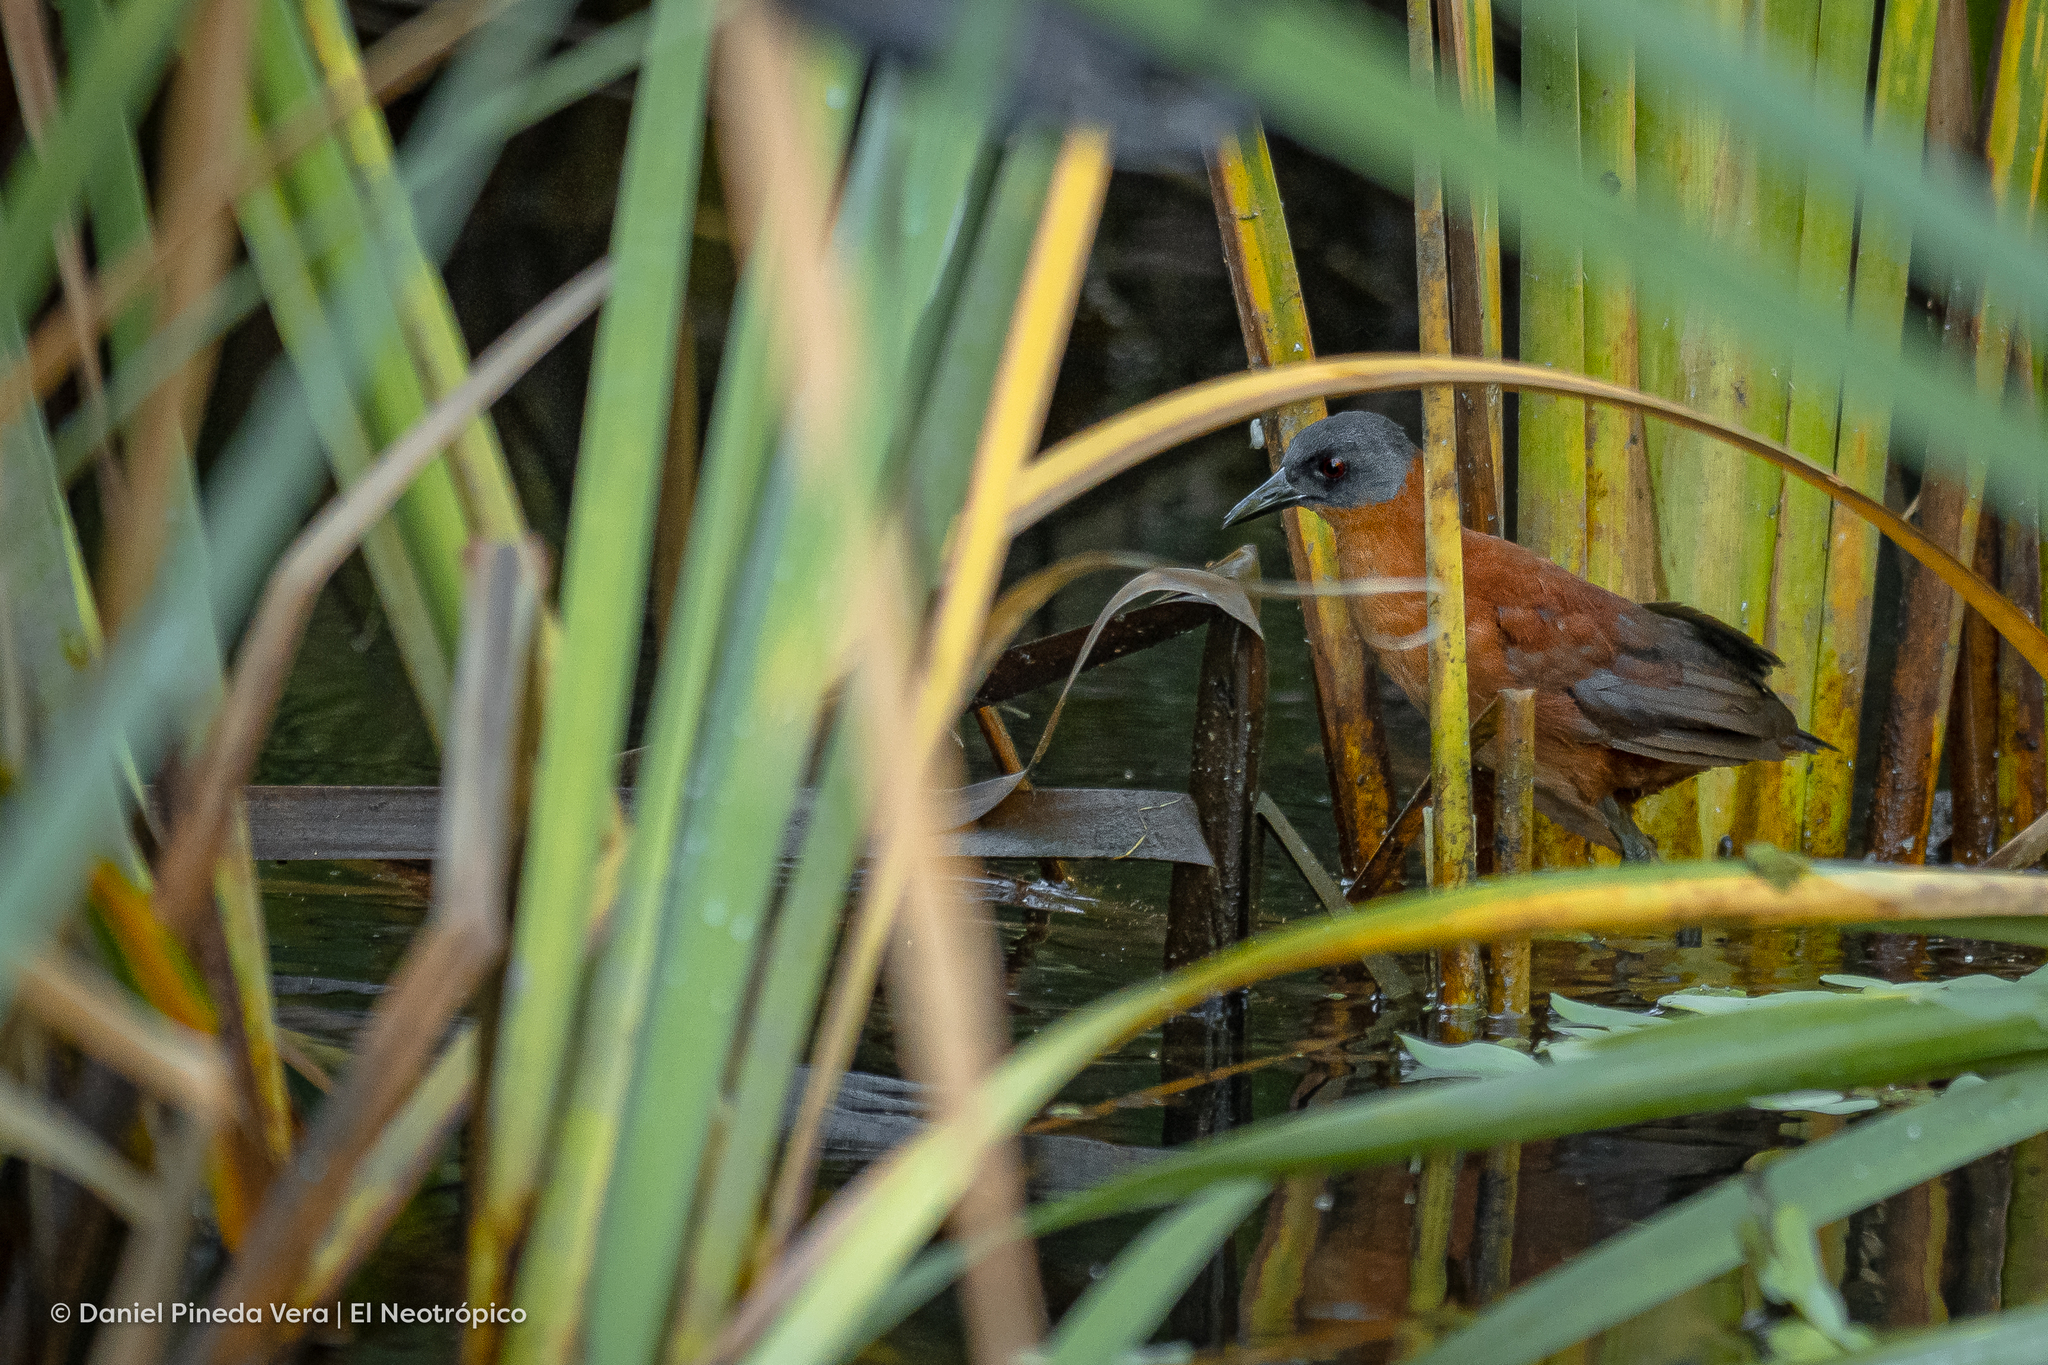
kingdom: Animalia
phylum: Chordata
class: Aves
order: Gruiformes
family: Rallidae
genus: Laterallus
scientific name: Laterallus ruber
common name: Ruddy crake
